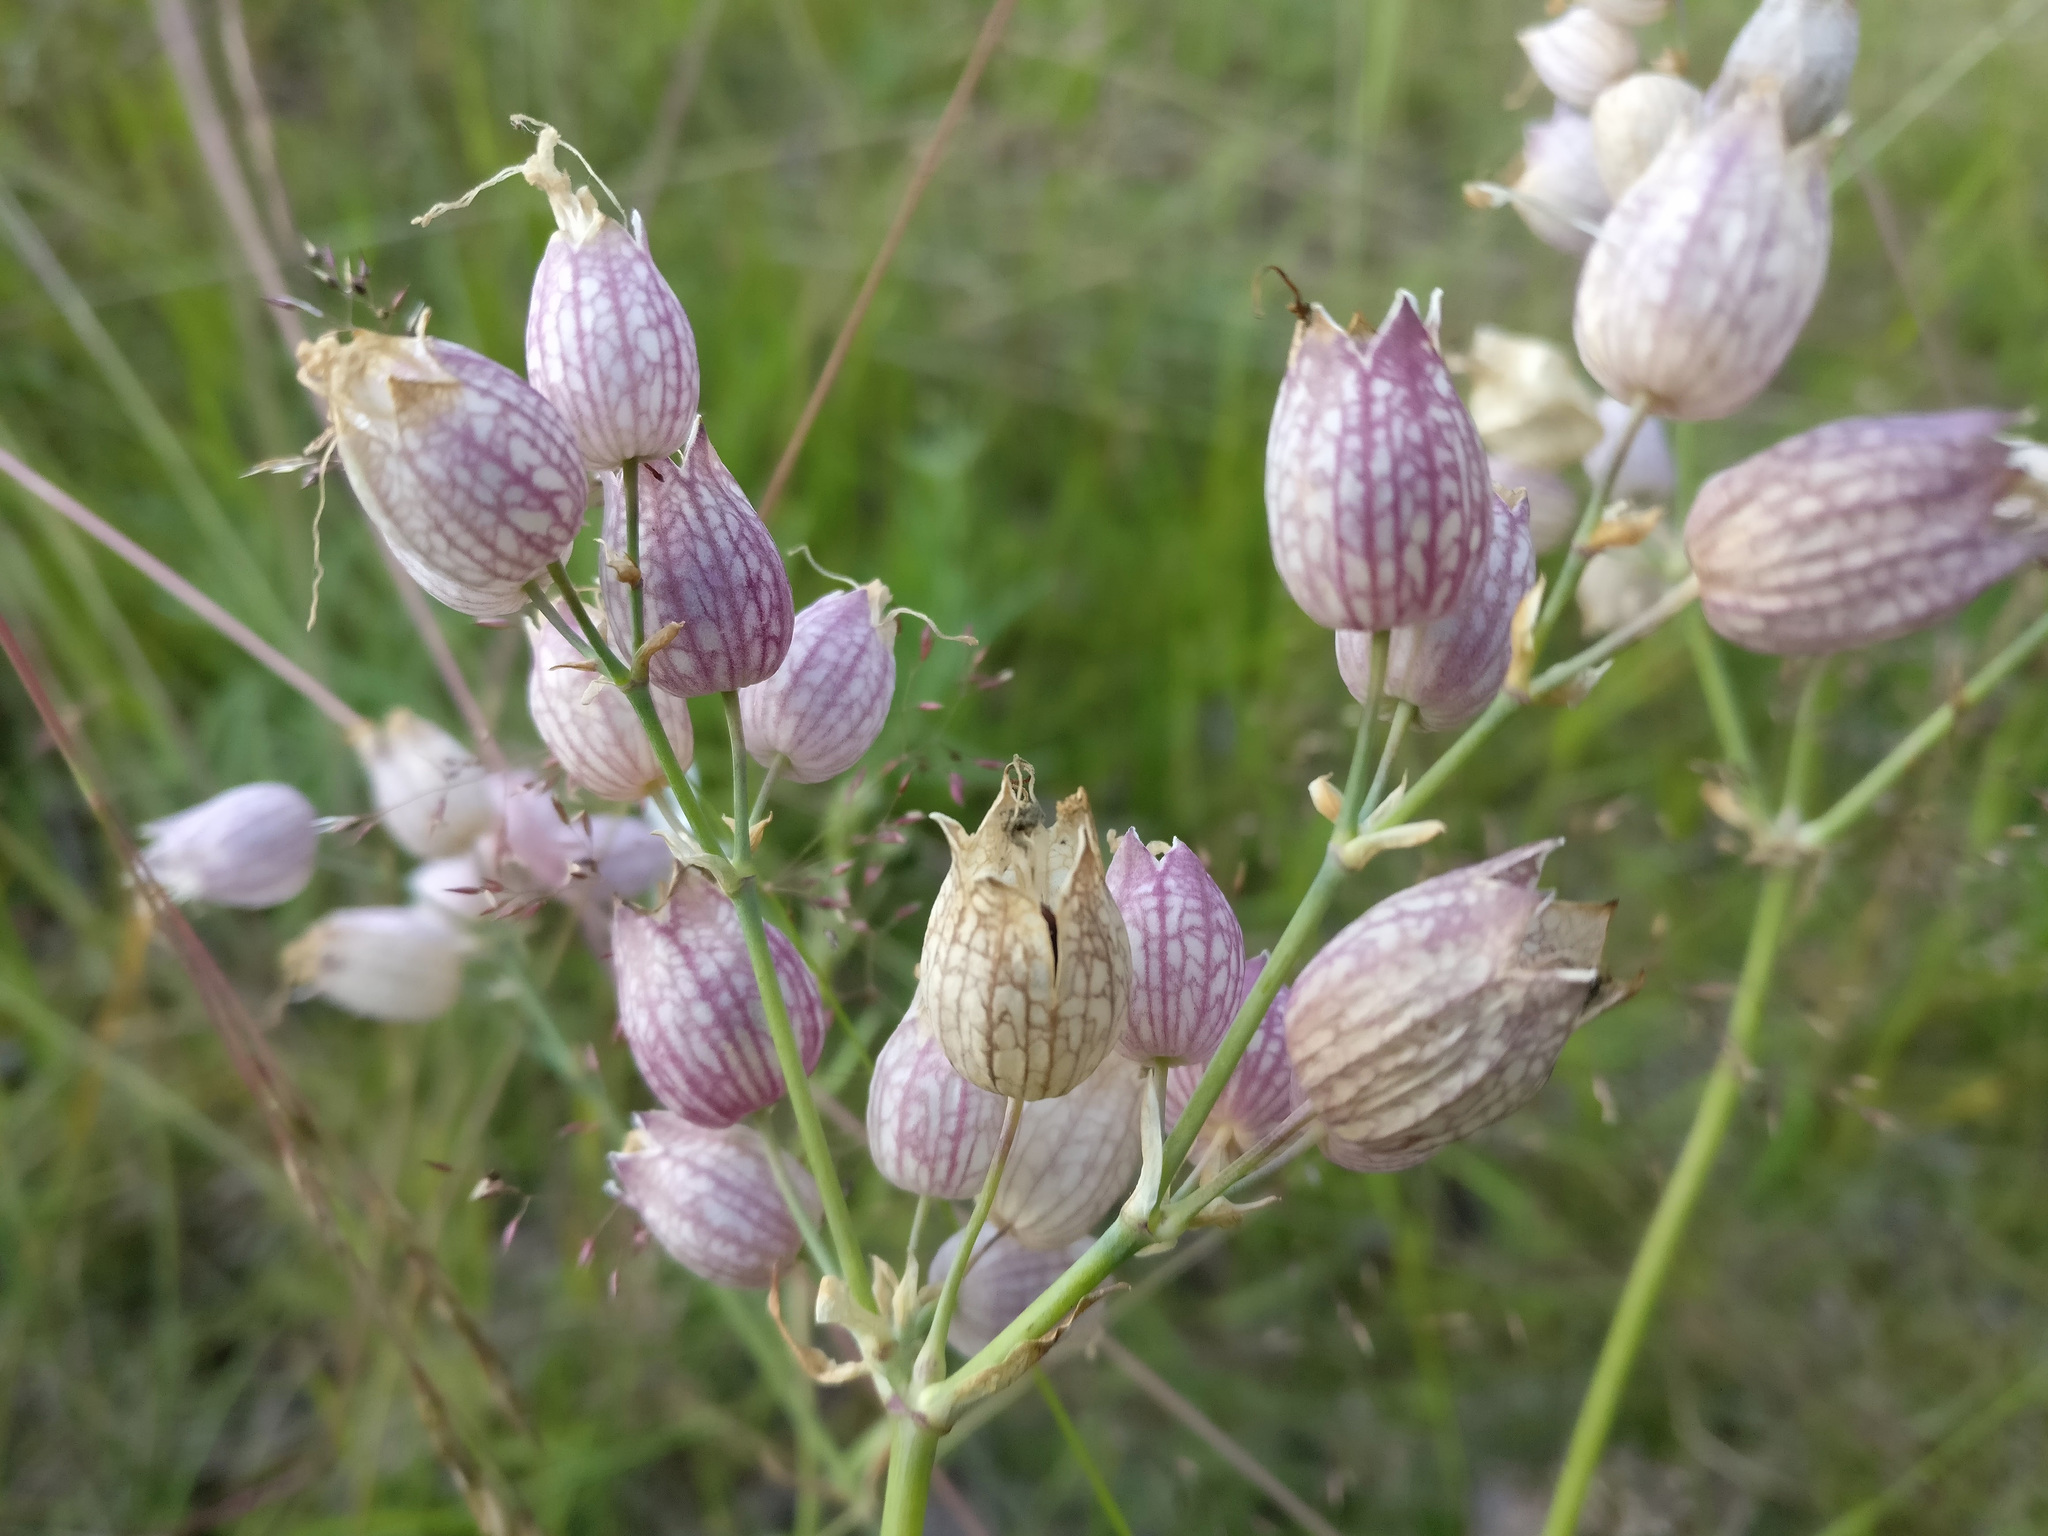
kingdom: Plantae
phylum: Tracheophyta
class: Magnoliopsida
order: Caryophyllales
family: Caryophyllaceae
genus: Silene
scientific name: Silene vulgaris
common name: Bladder campion
